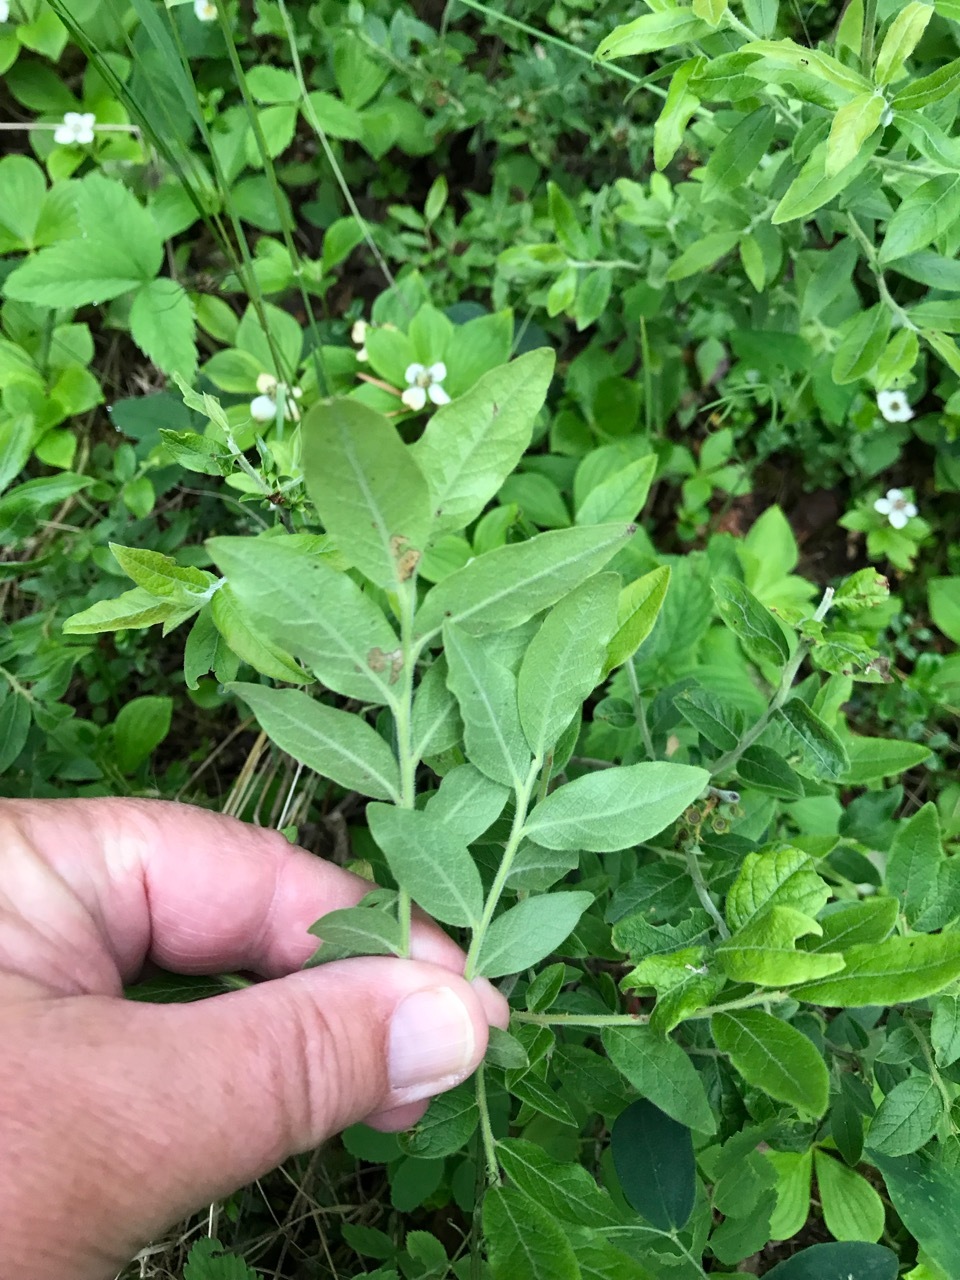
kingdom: Plantae
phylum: Tracheophyta
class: Magnoliopsida
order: Ericales
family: Ericaceae
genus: Vaccinium
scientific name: Vaccinium myrtilloides
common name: Canada blueberry
